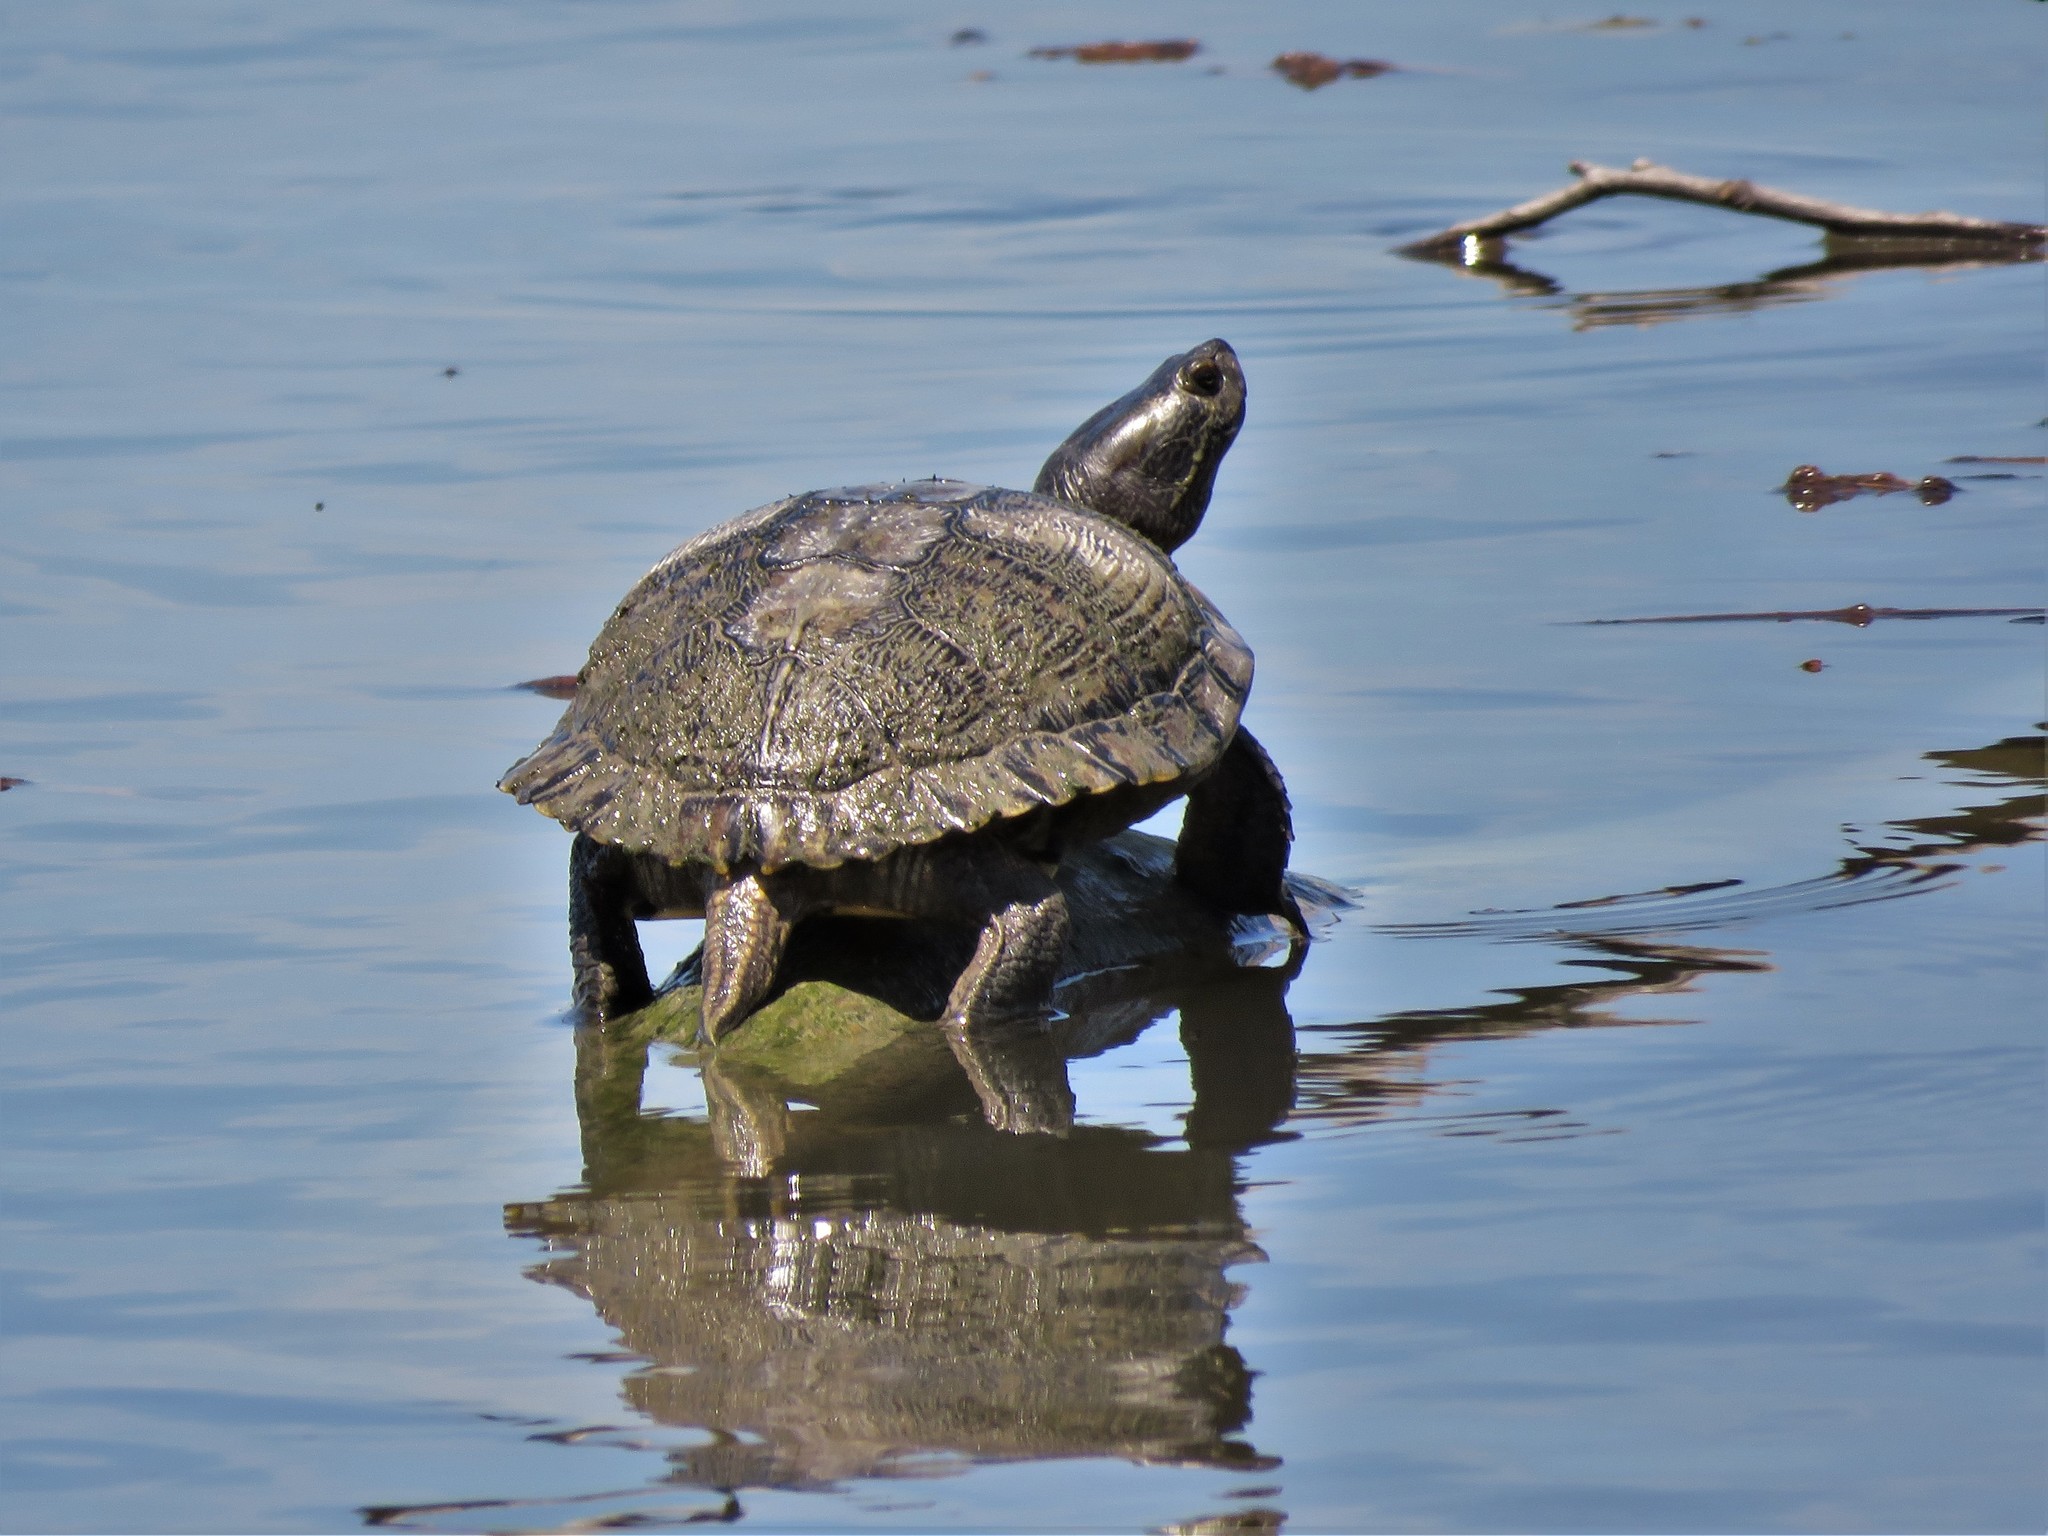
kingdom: Animalia
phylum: Chordata
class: Testudines
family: Emydidae
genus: Trachemys
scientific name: Trachemys scripta
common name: Slider
